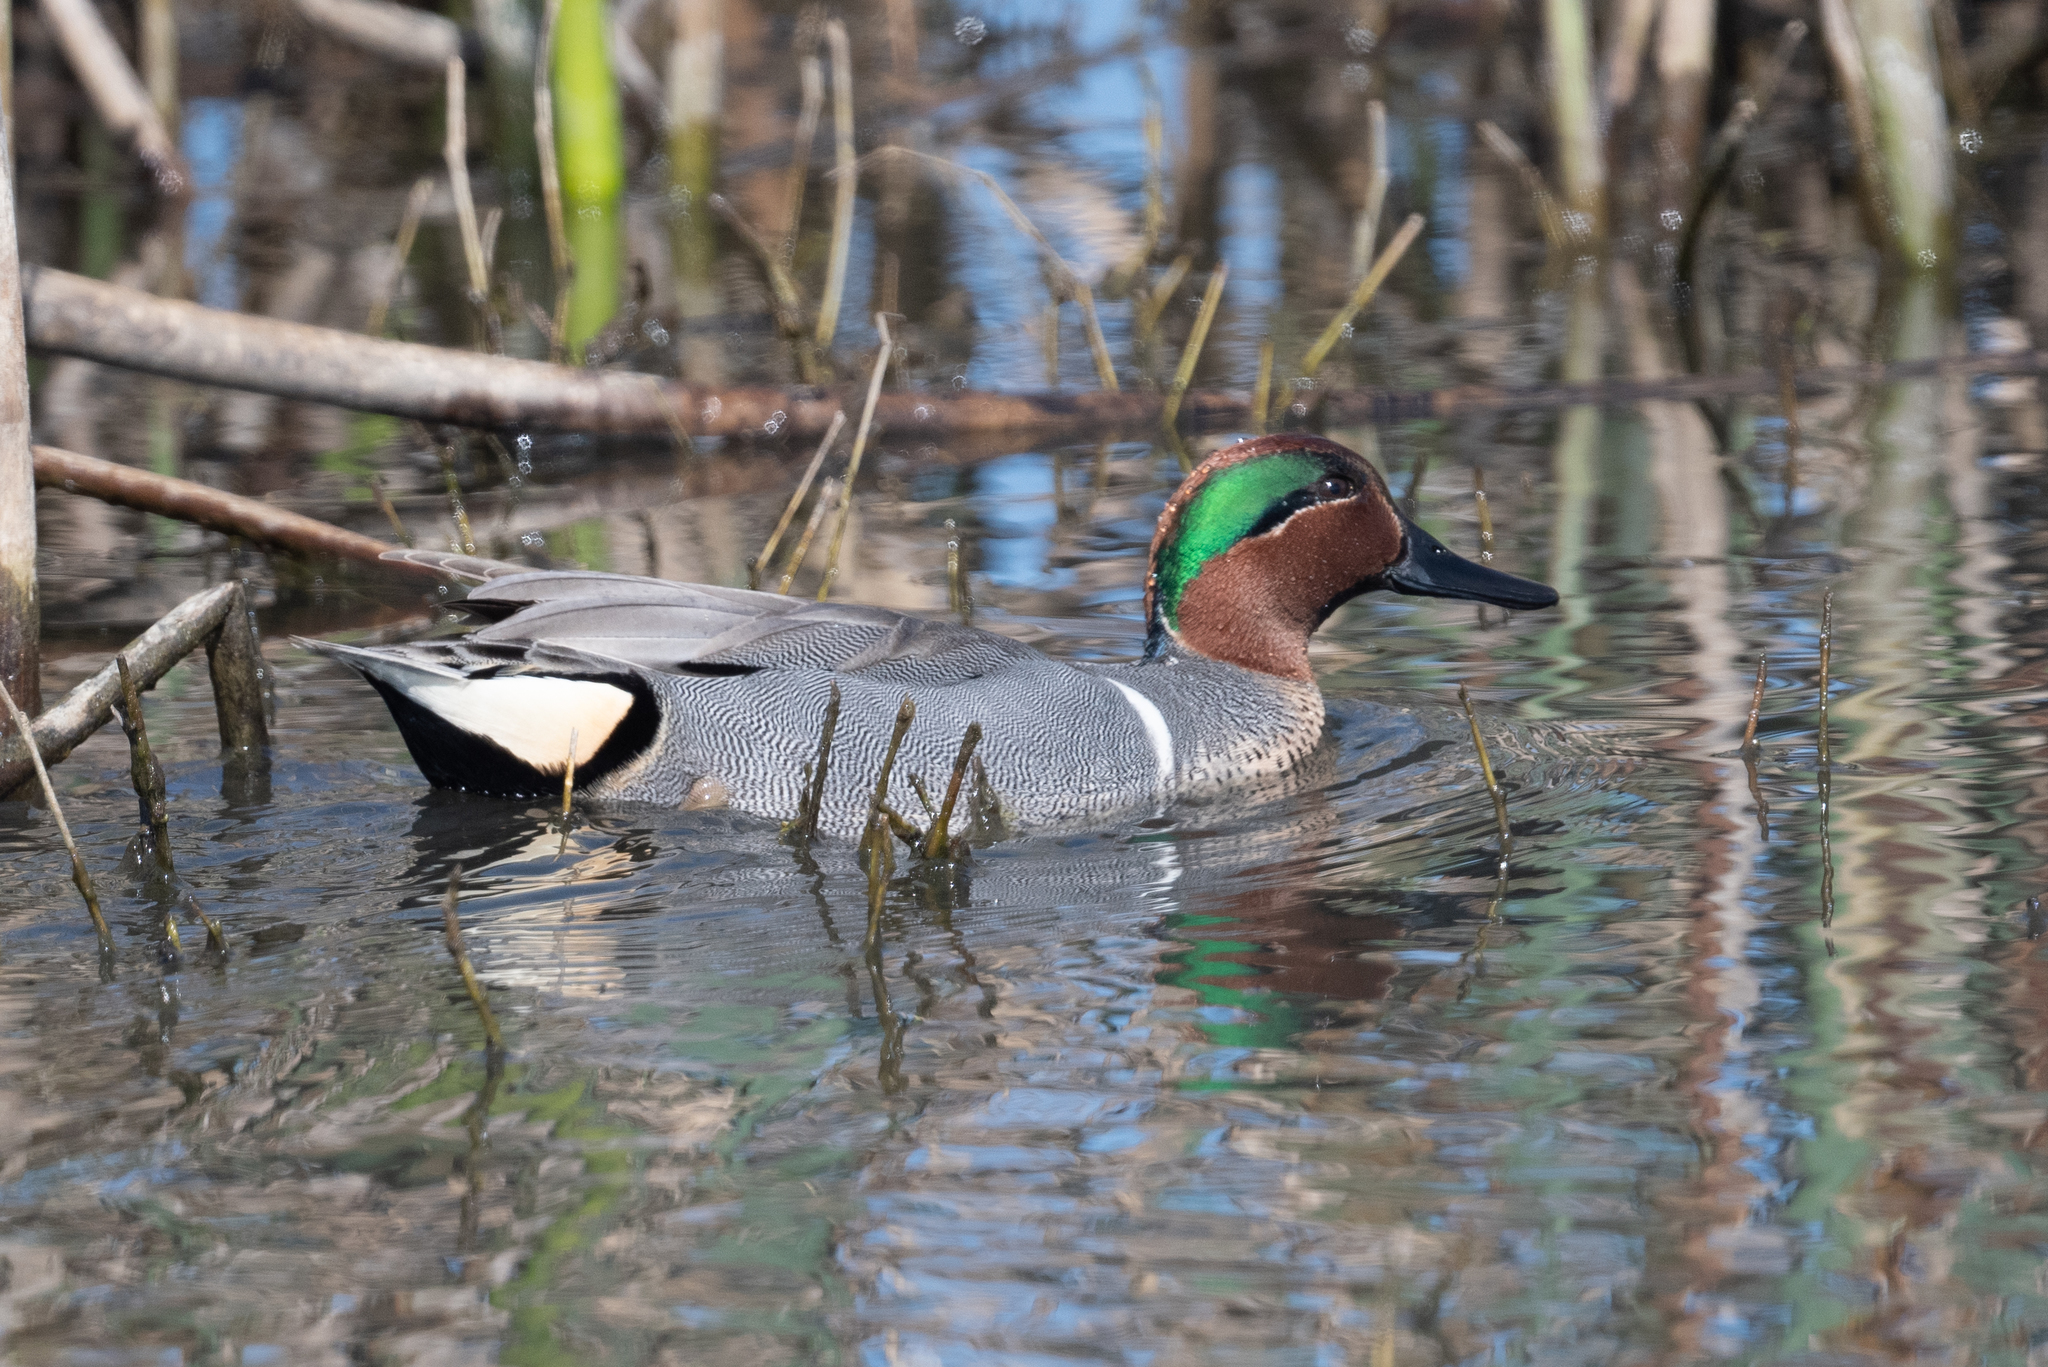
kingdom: Animalia
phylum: Chordata
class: Aves
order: Anseriformes
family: Anatidae
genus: Anas
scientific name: Anas crecca
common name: Eurasian teal
